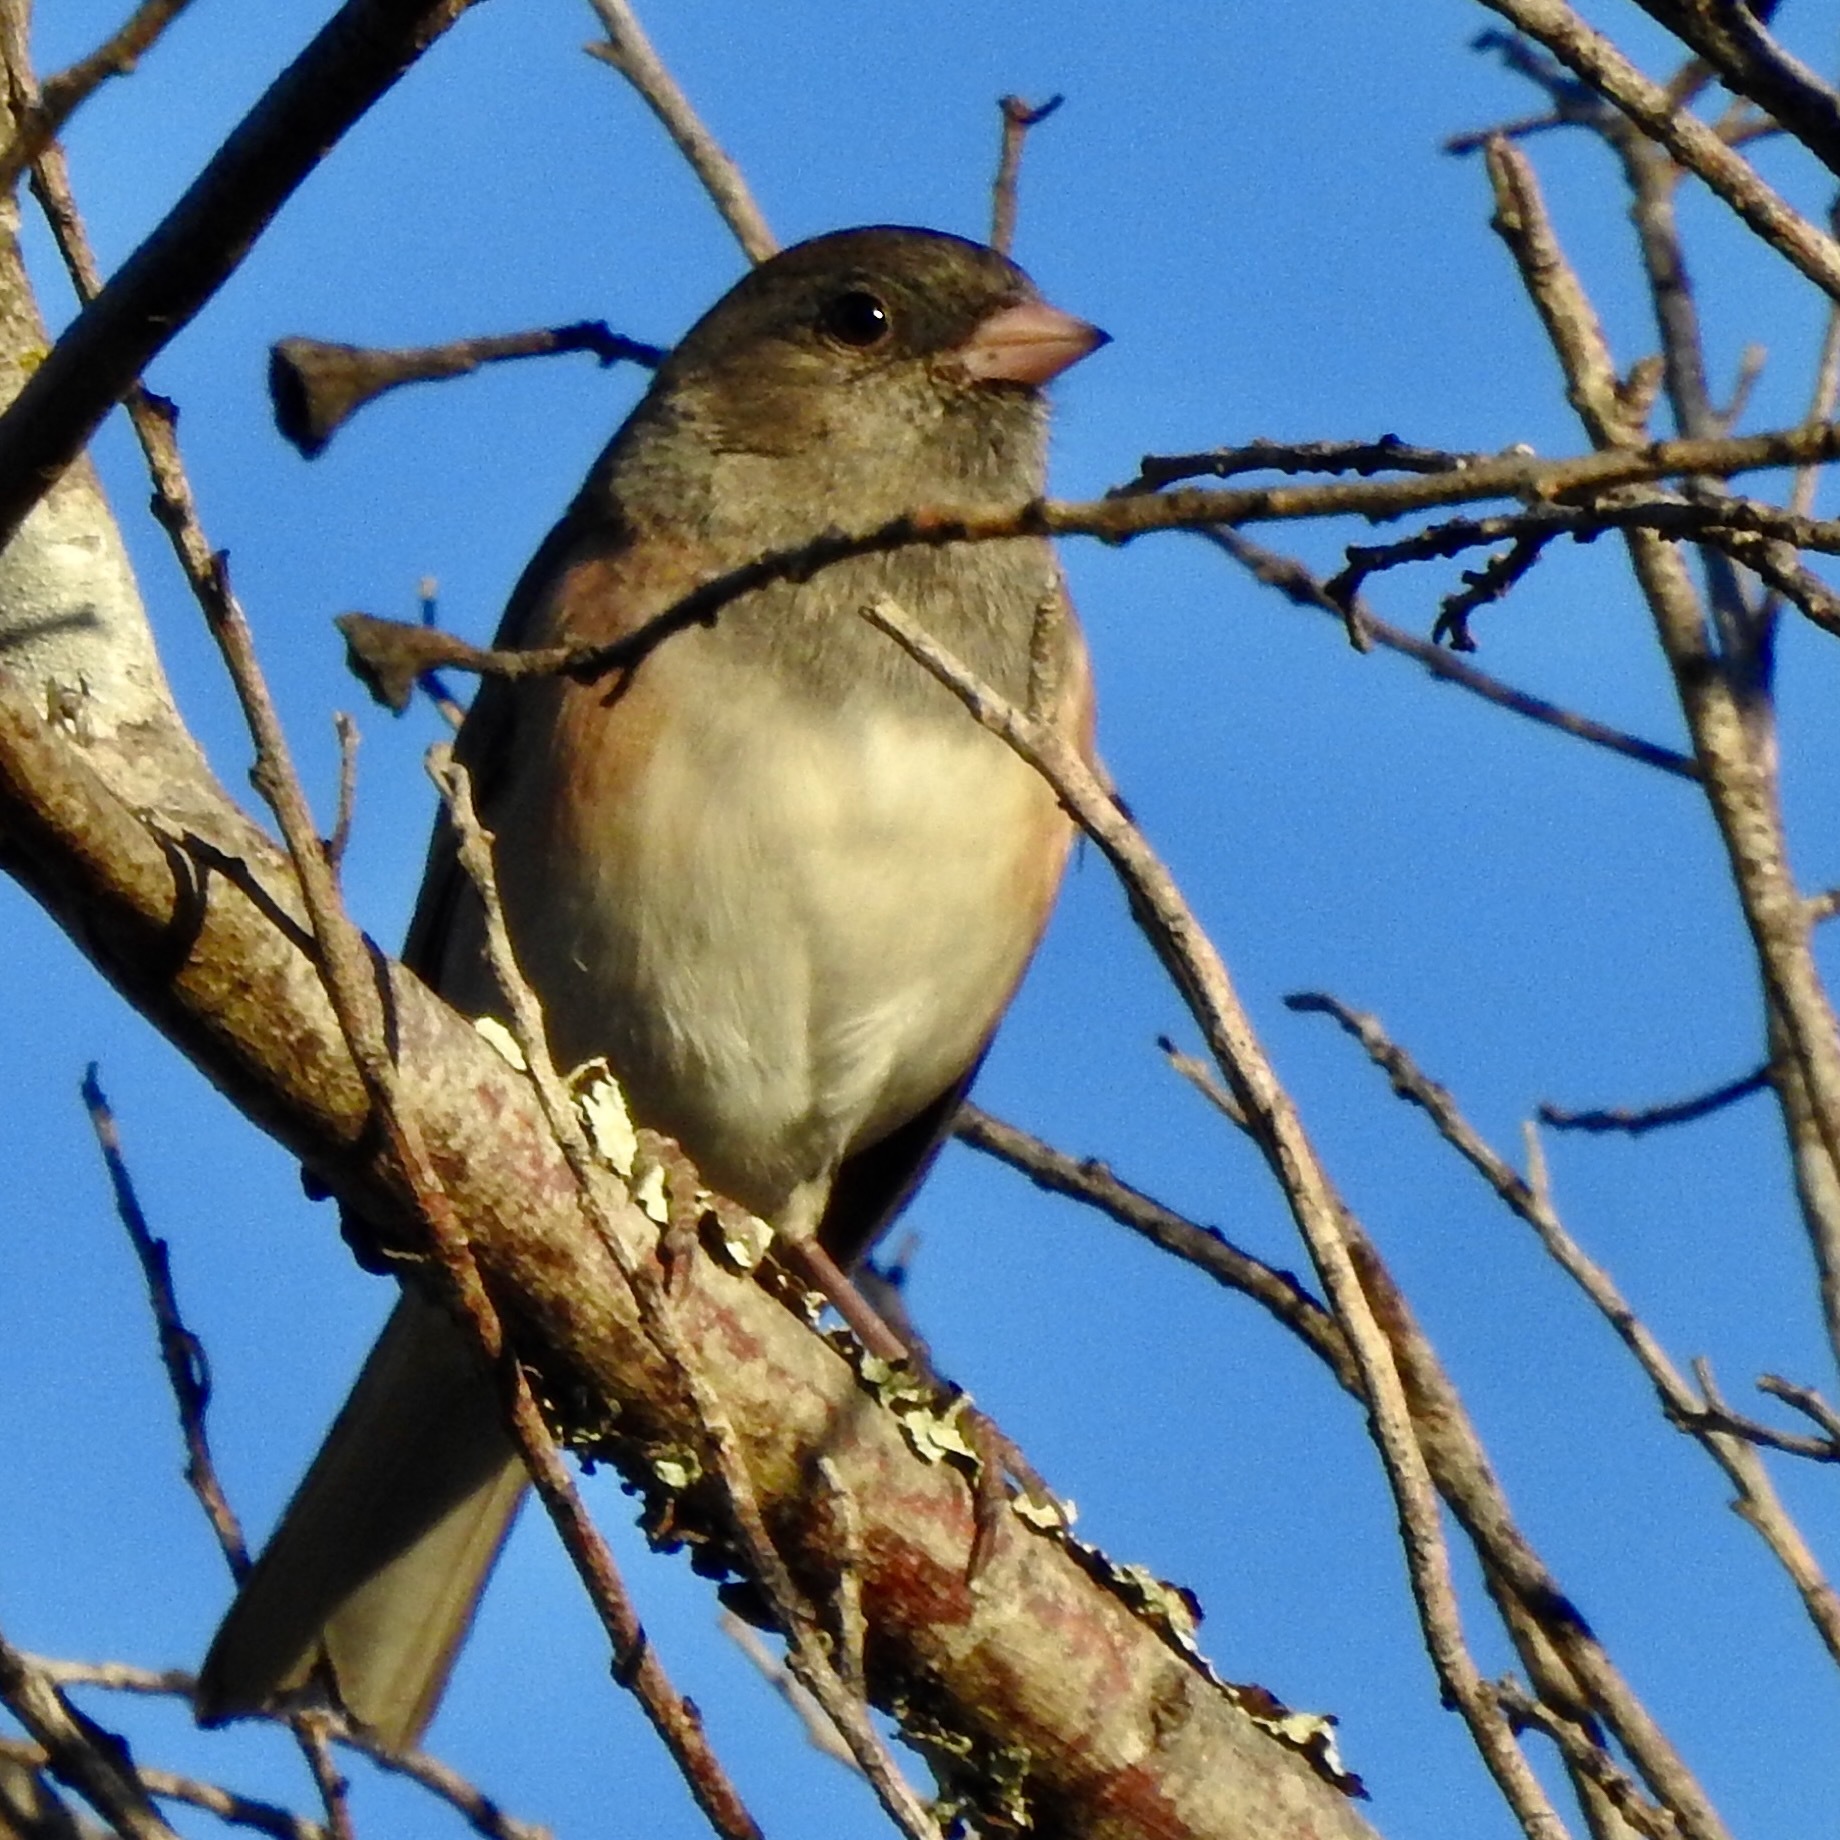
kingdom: Animalia
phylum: Chordata
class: Aves
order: Passeriformes
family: Passerellidae
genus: Junco
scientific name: Junco hyemalis
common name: Dark-eyed junco
